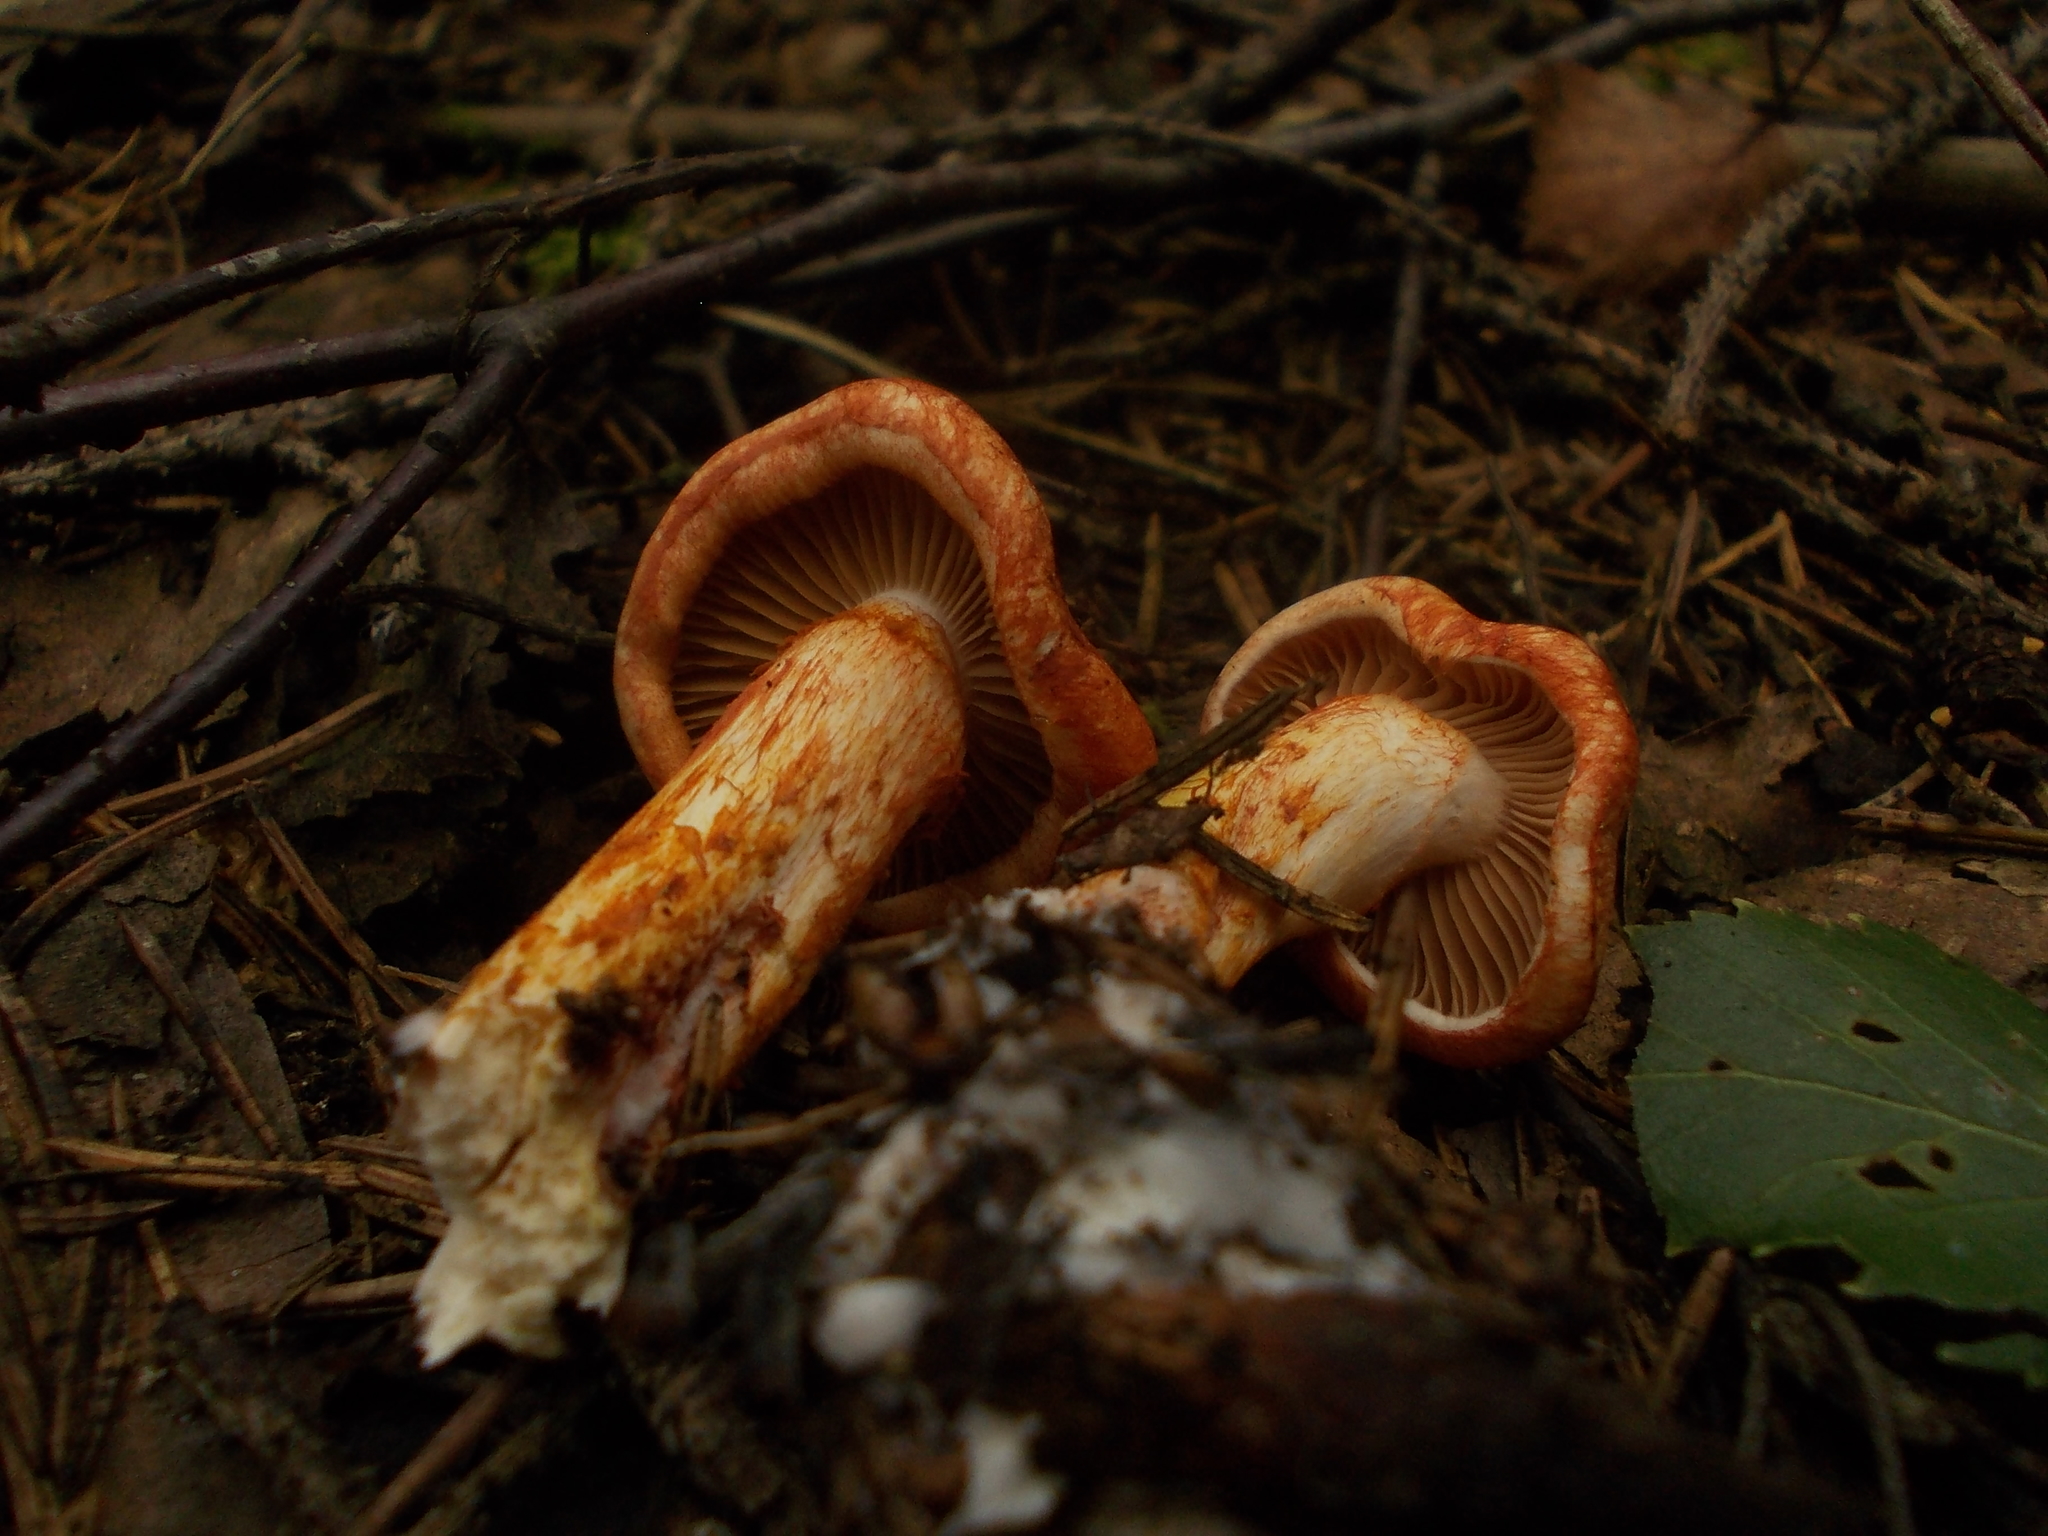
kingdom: Fungi
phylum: Basidiomycota
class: Agaricomycetes
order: Agaricales
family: Cortinariaceae
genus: Cortinarius
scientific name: Cortinarius bolaris
